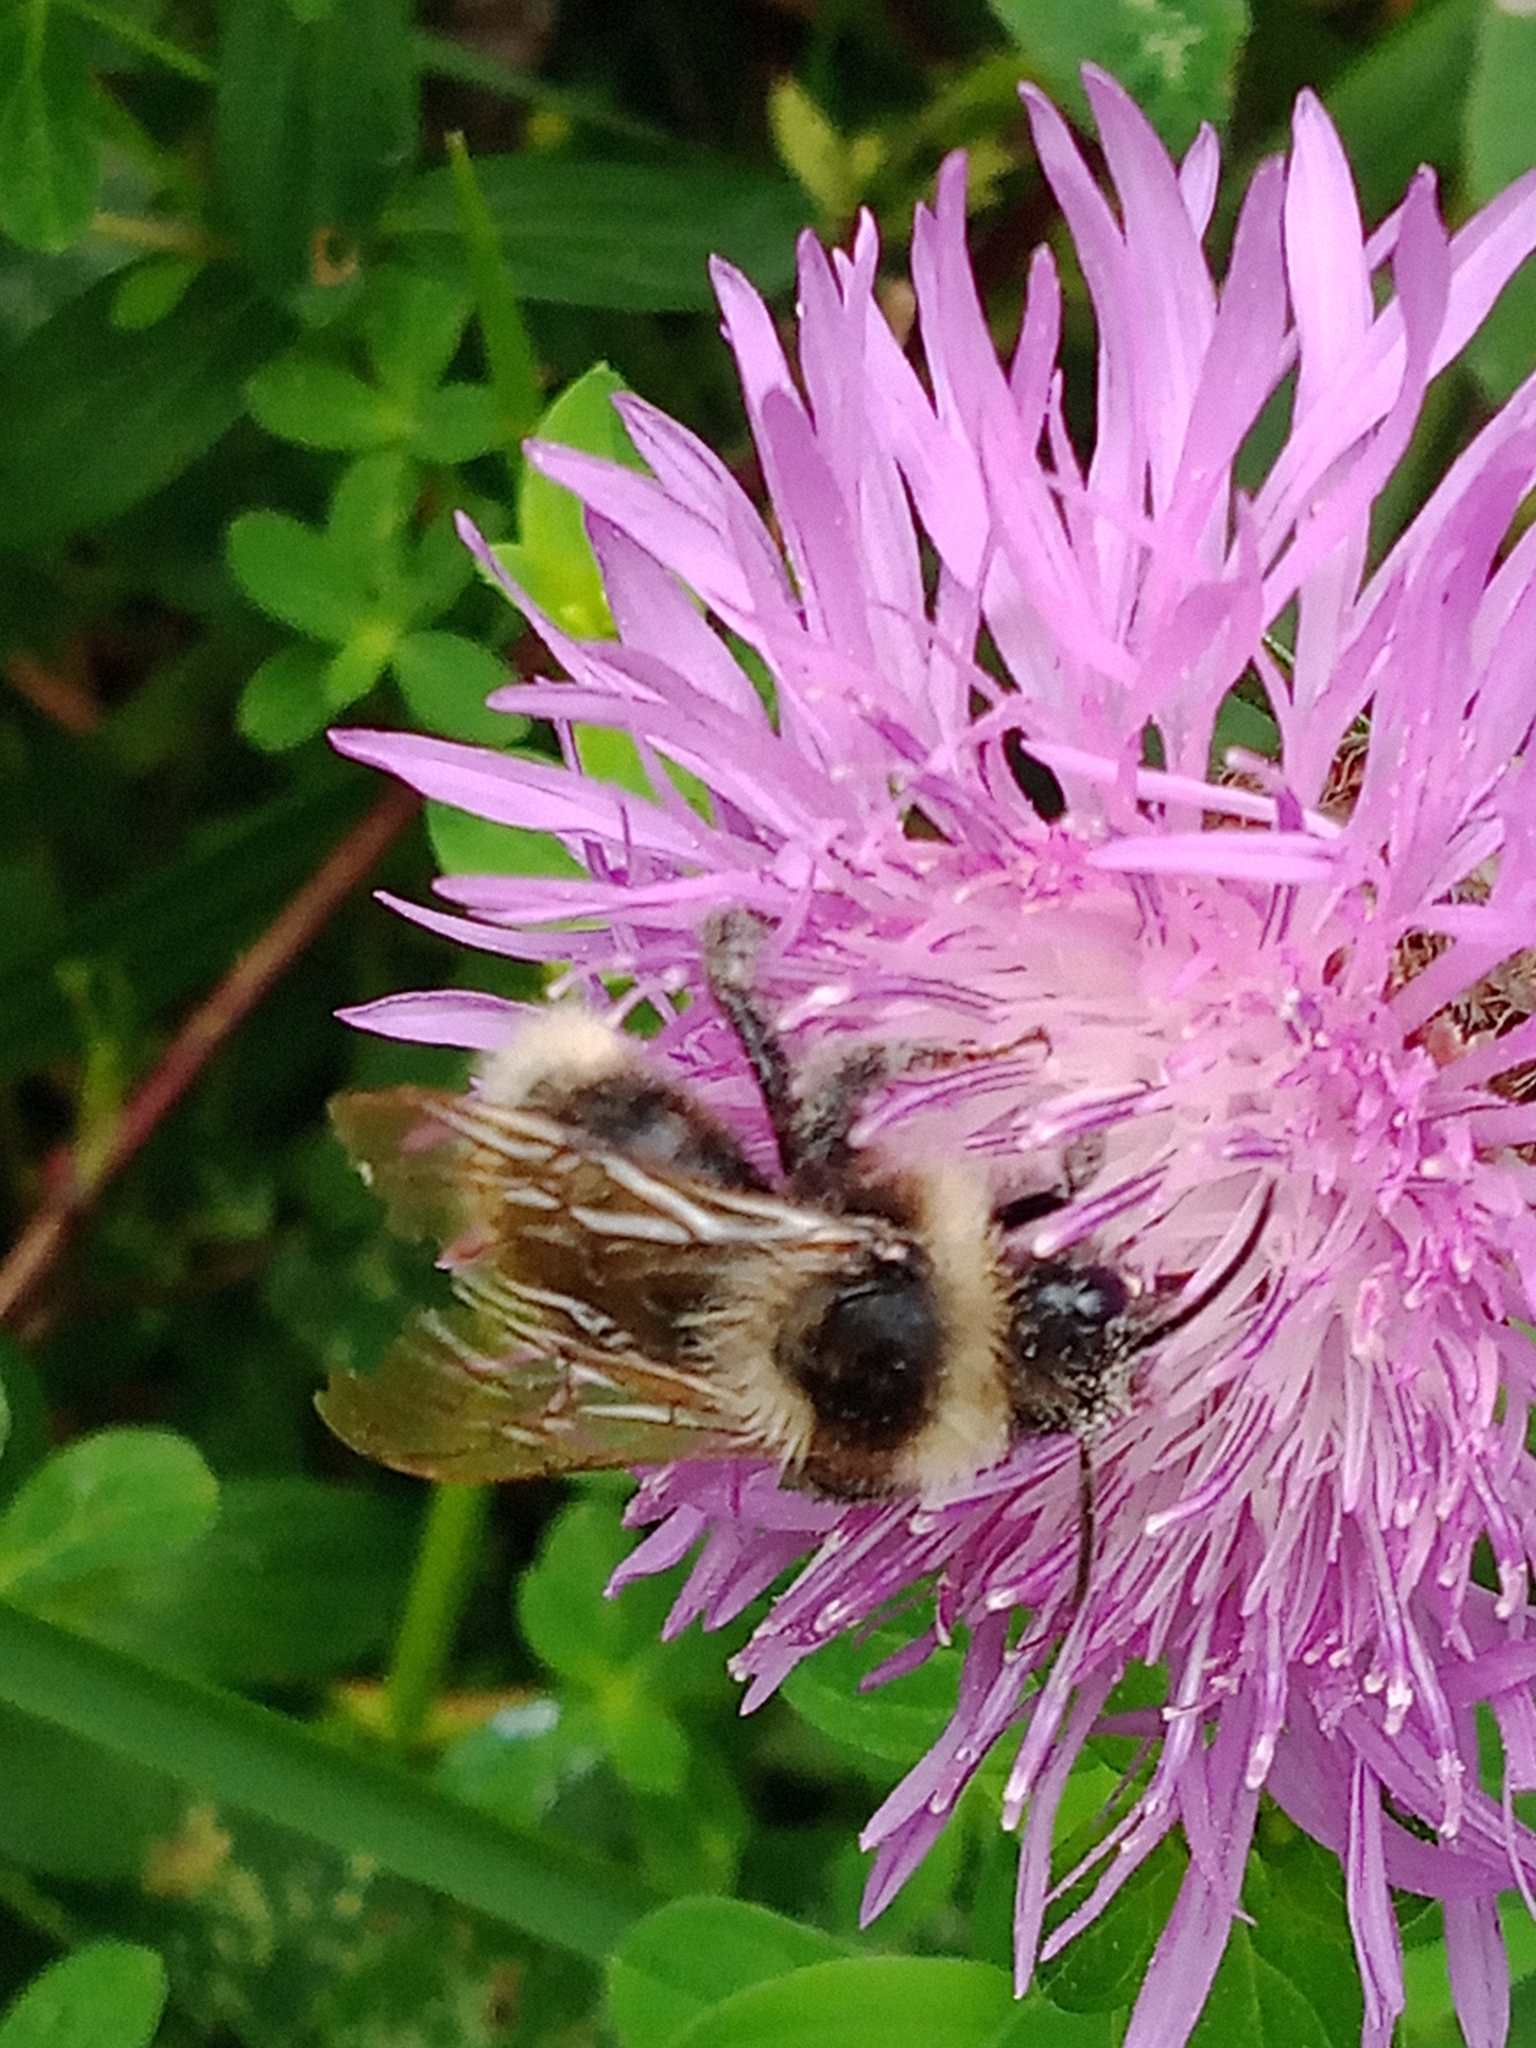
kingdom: Animalia
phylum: Arthropoda
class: Insecta
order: Hymenoptera
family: Apidae
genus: Bombus
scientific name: Bombus campestris
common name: Field cuckoo-bee
